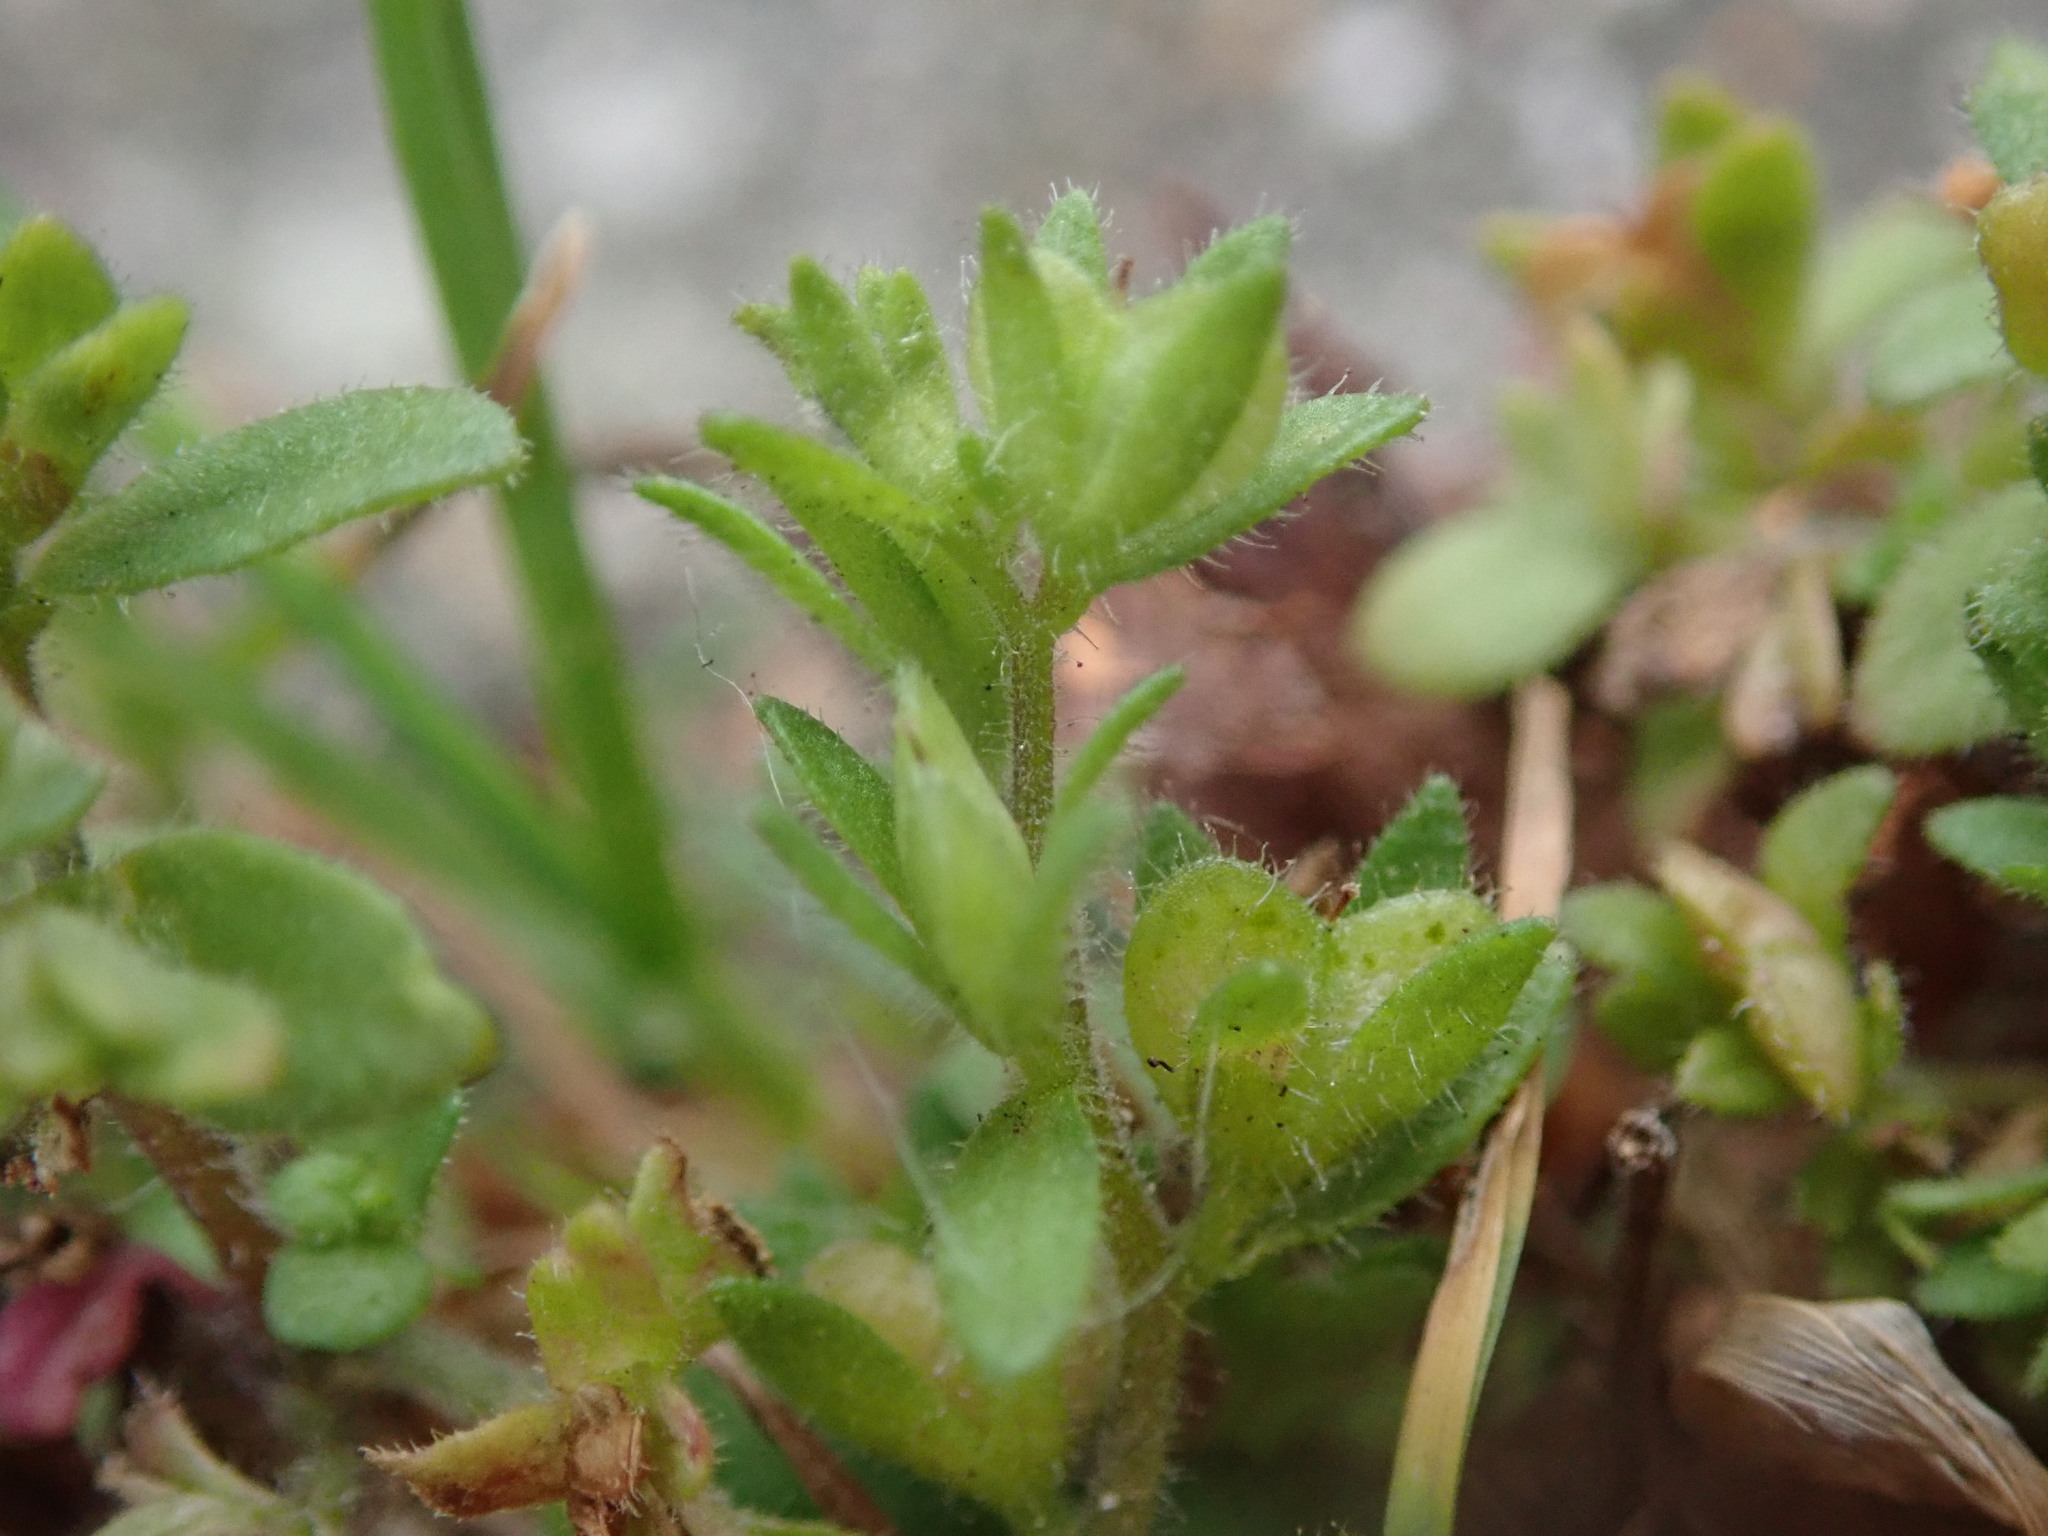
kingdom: Plantae
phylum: Tracheophyta
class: Magnoliopsida
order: Lamiales
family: Plantaginaceae
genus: Veronica
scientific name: Veronica arvensis
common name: Corn speedwell
